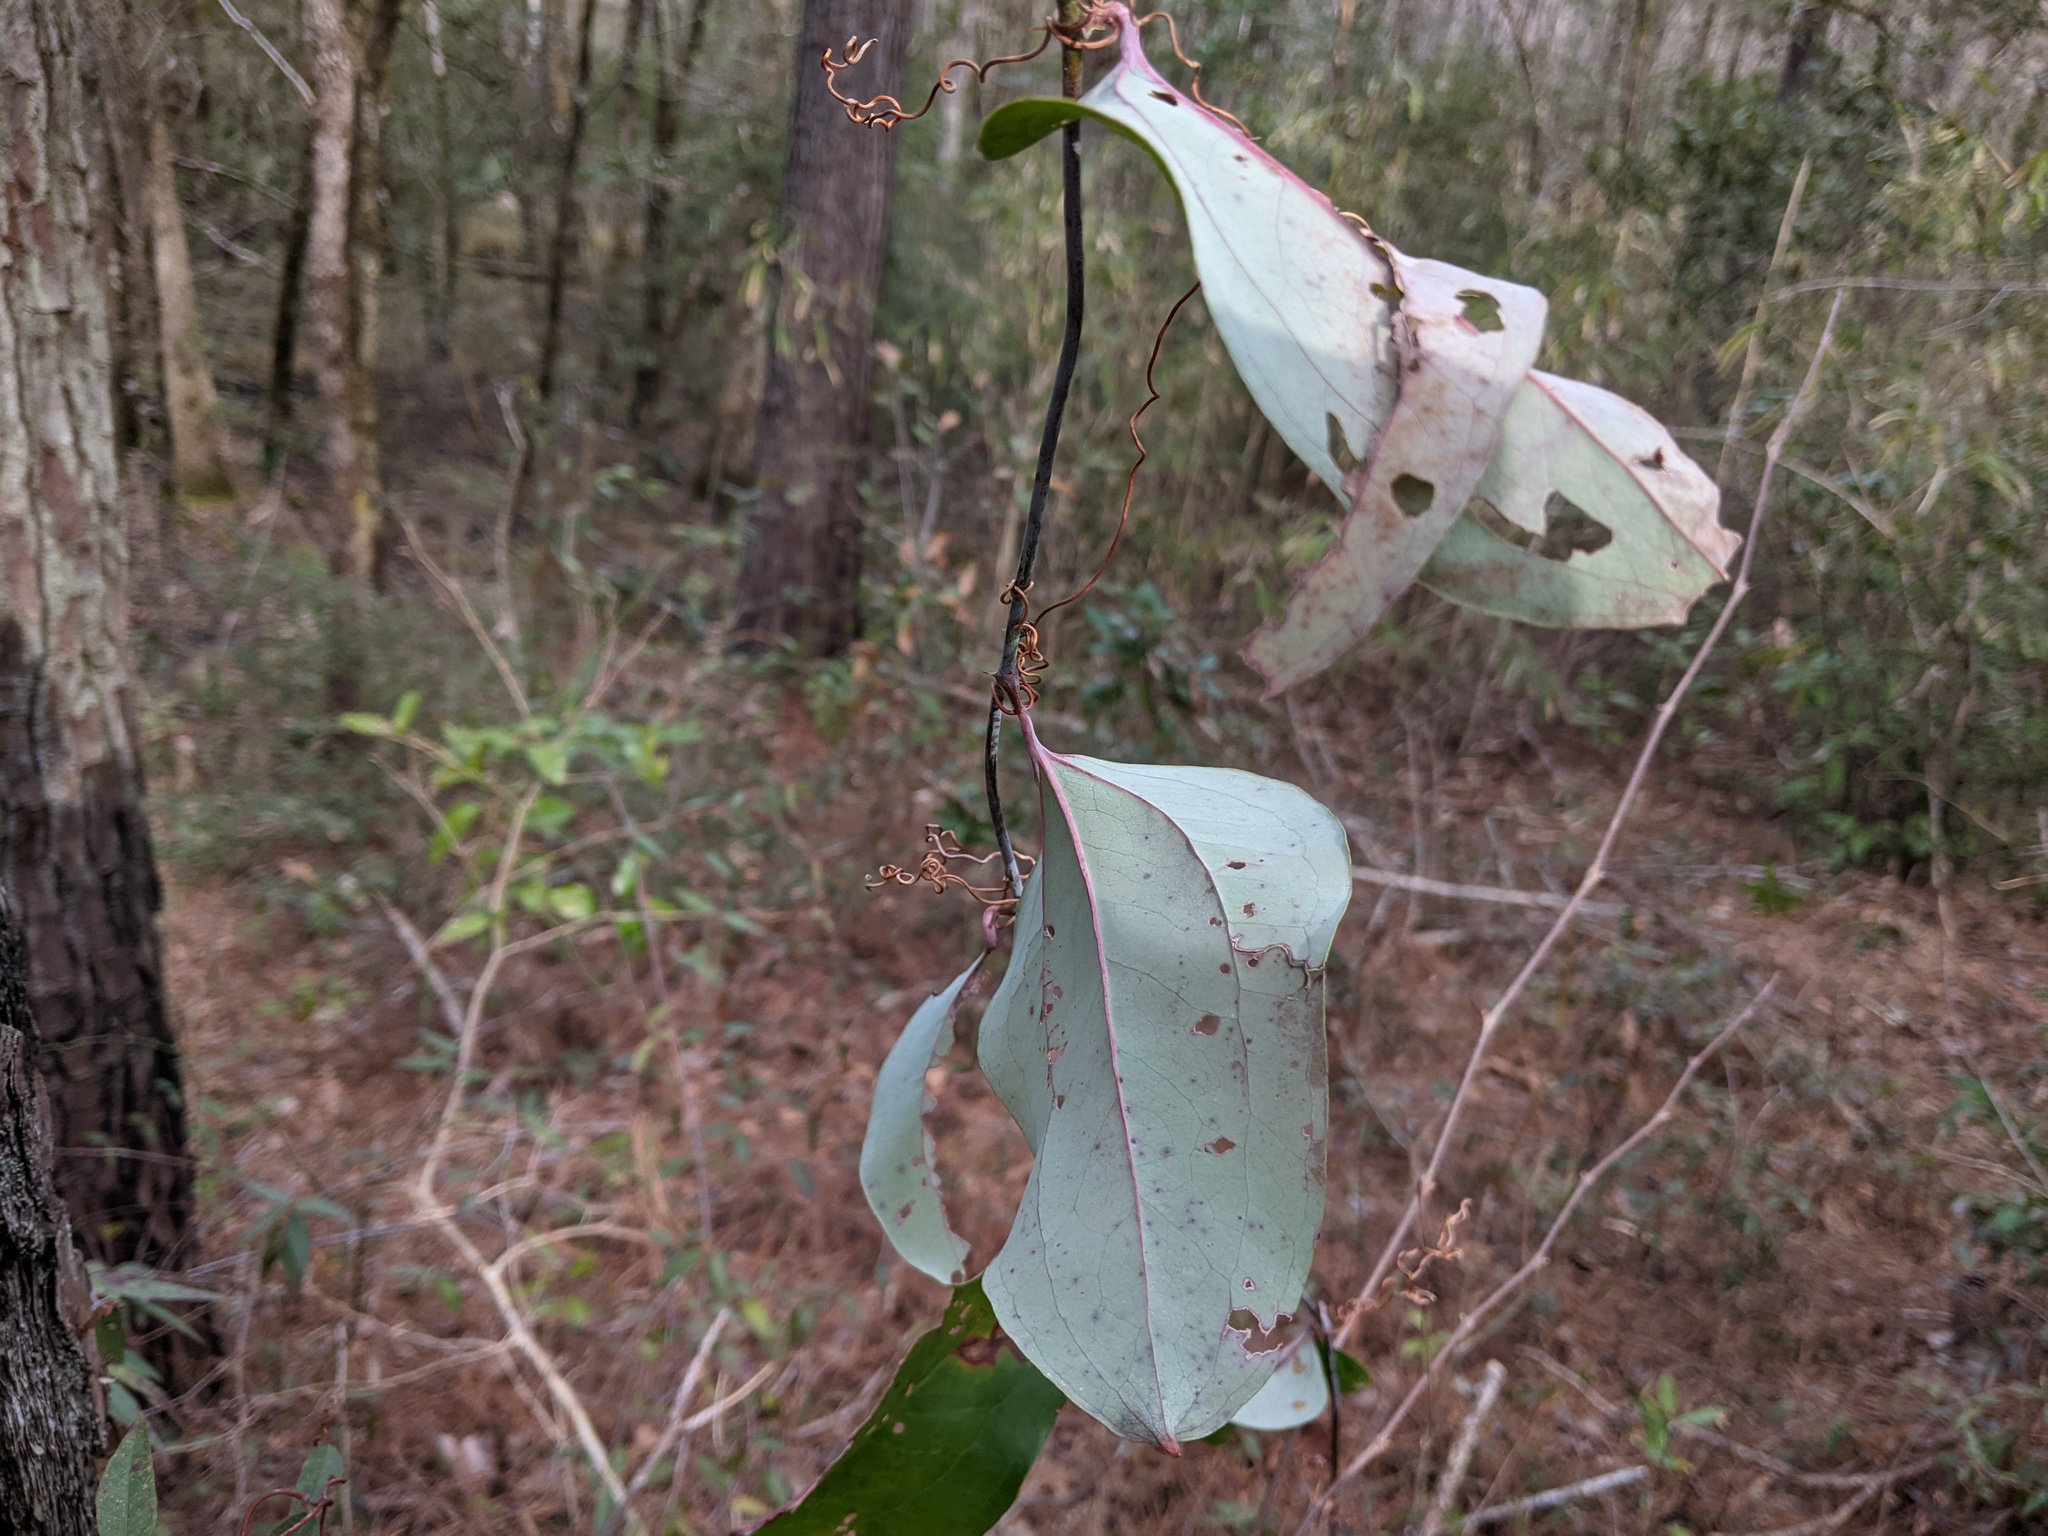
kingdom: Plantae
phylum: Tracheophyta
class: Liliopsida
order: Liliales
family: Smilacaceae
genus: Smilax
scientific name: Smilax glauca
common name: Cat greenbrier
